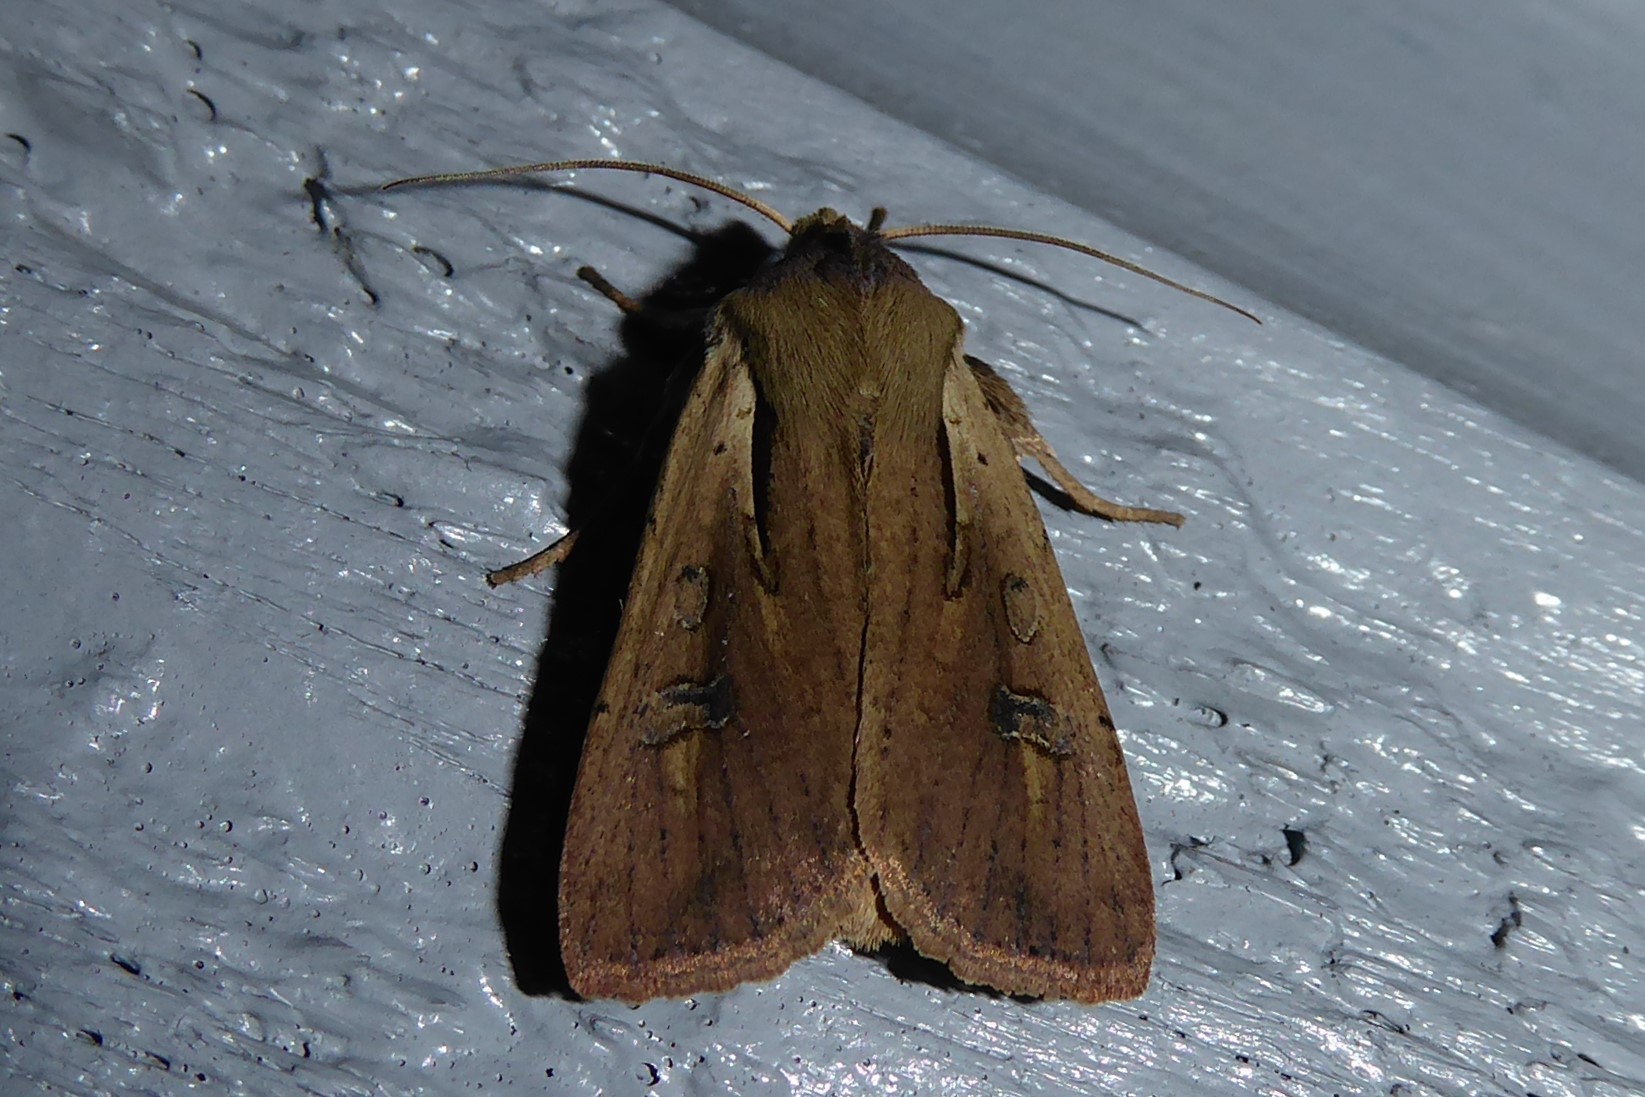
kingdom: Animalia
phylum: Arthropoda
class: Insecta
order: Lepidoptera
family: Noctuidae
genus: Ichneutica
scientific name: Ichneutica atristriga
